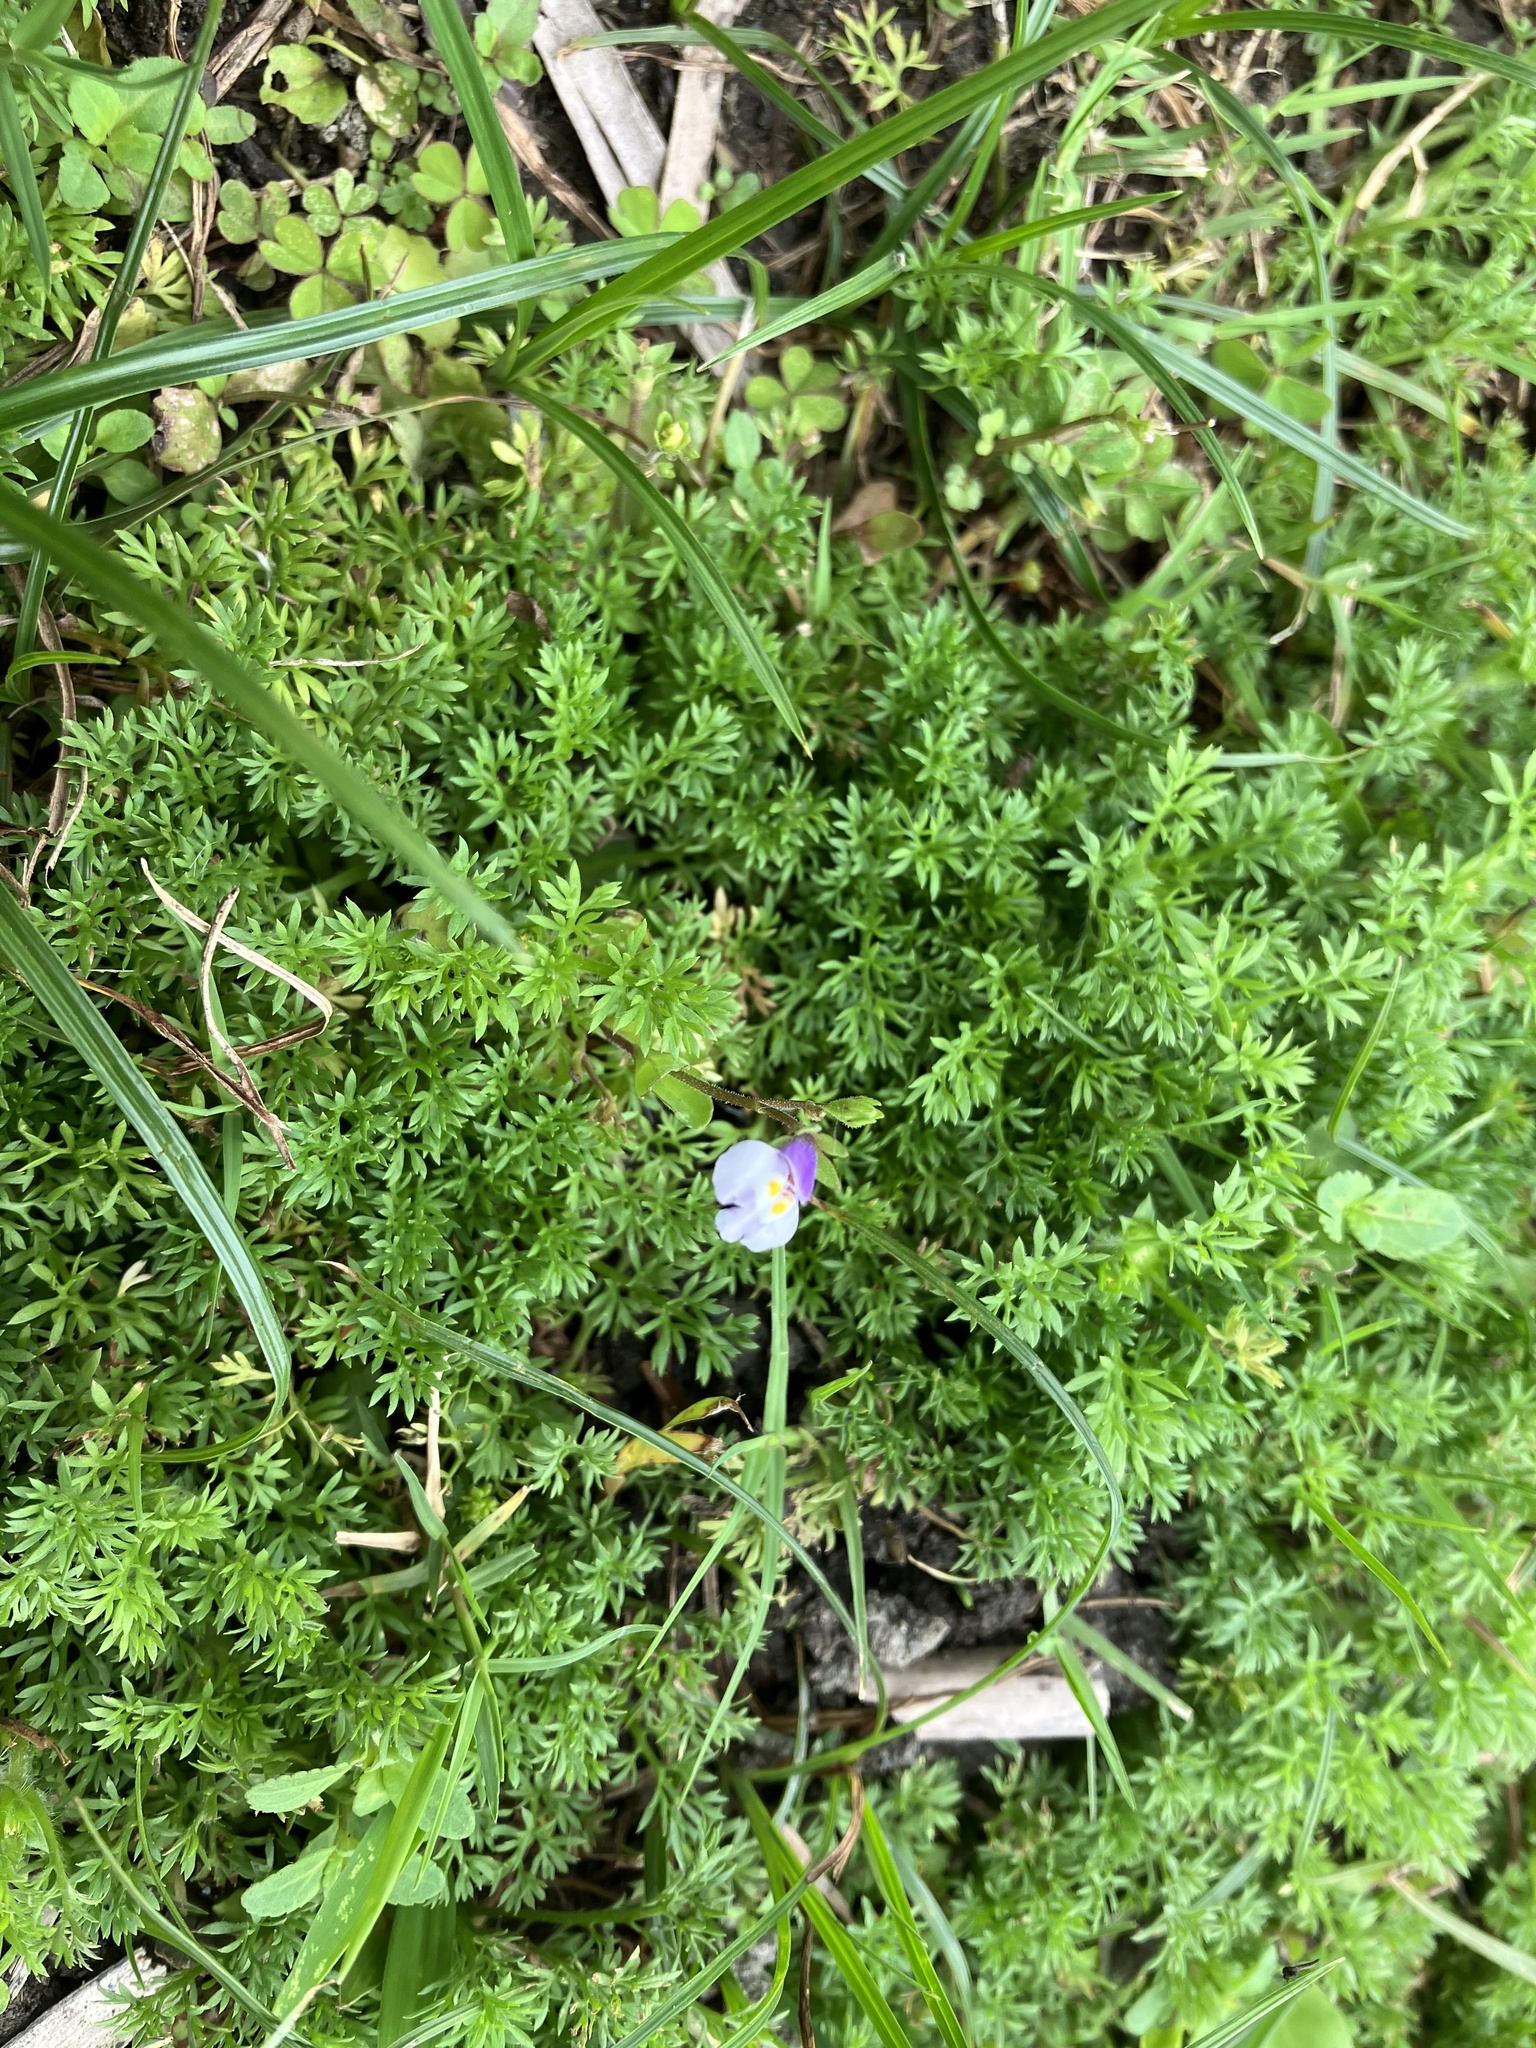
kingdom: Plantae
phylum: Tracheophyta
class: Magnoliopsida
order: Lamiales
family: Mazaceae
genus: Mazus
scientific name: Mazus pumilus
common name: Japanese mazus
